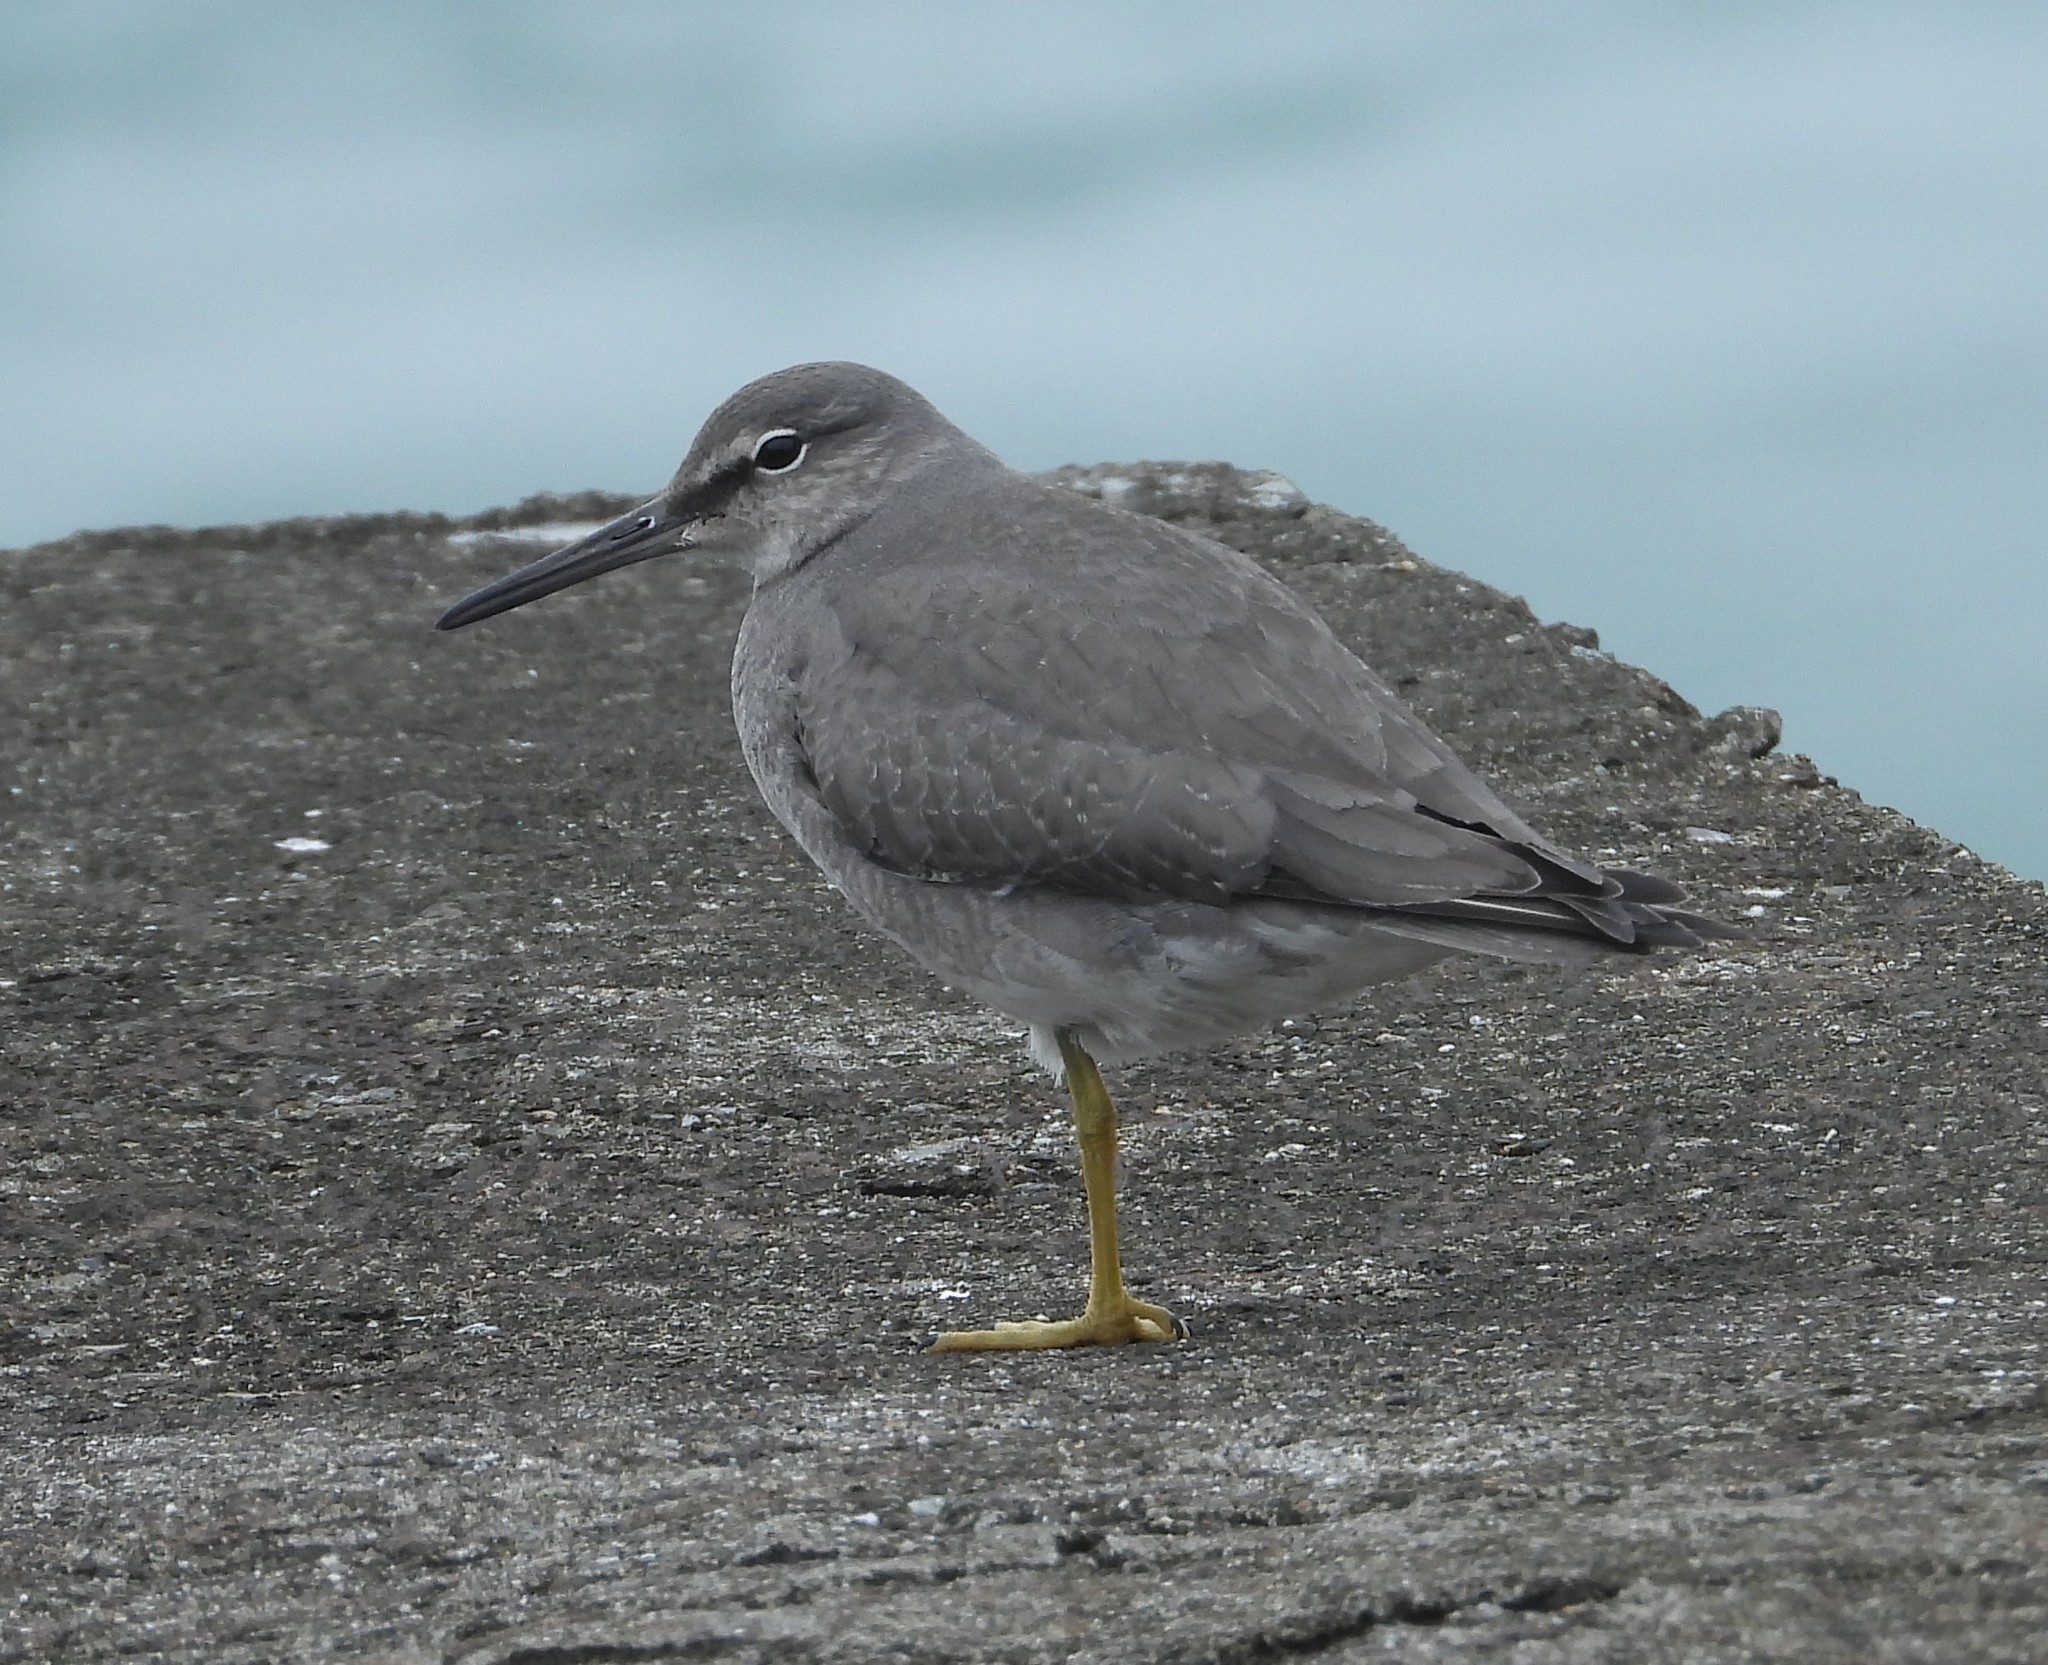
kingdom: Animalia
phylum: Chordata
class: Aves
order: Charadriiformes
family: Scolopacidae
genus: Tringa
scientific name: Tringa incana
